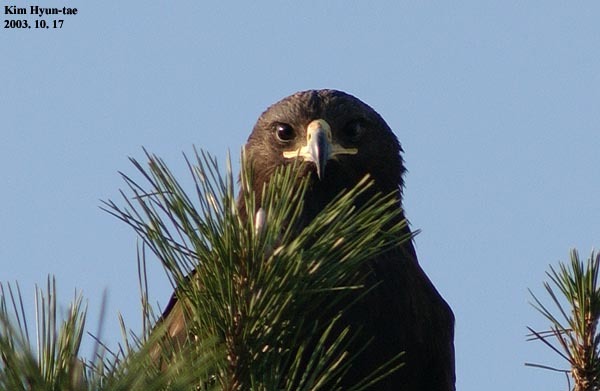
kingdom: Animalia
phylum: Chordata
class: Aves
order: Accipitriformes
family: Accipitridae
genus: Aquila
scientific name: Aquila clanga
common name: Greater spotted eagle
